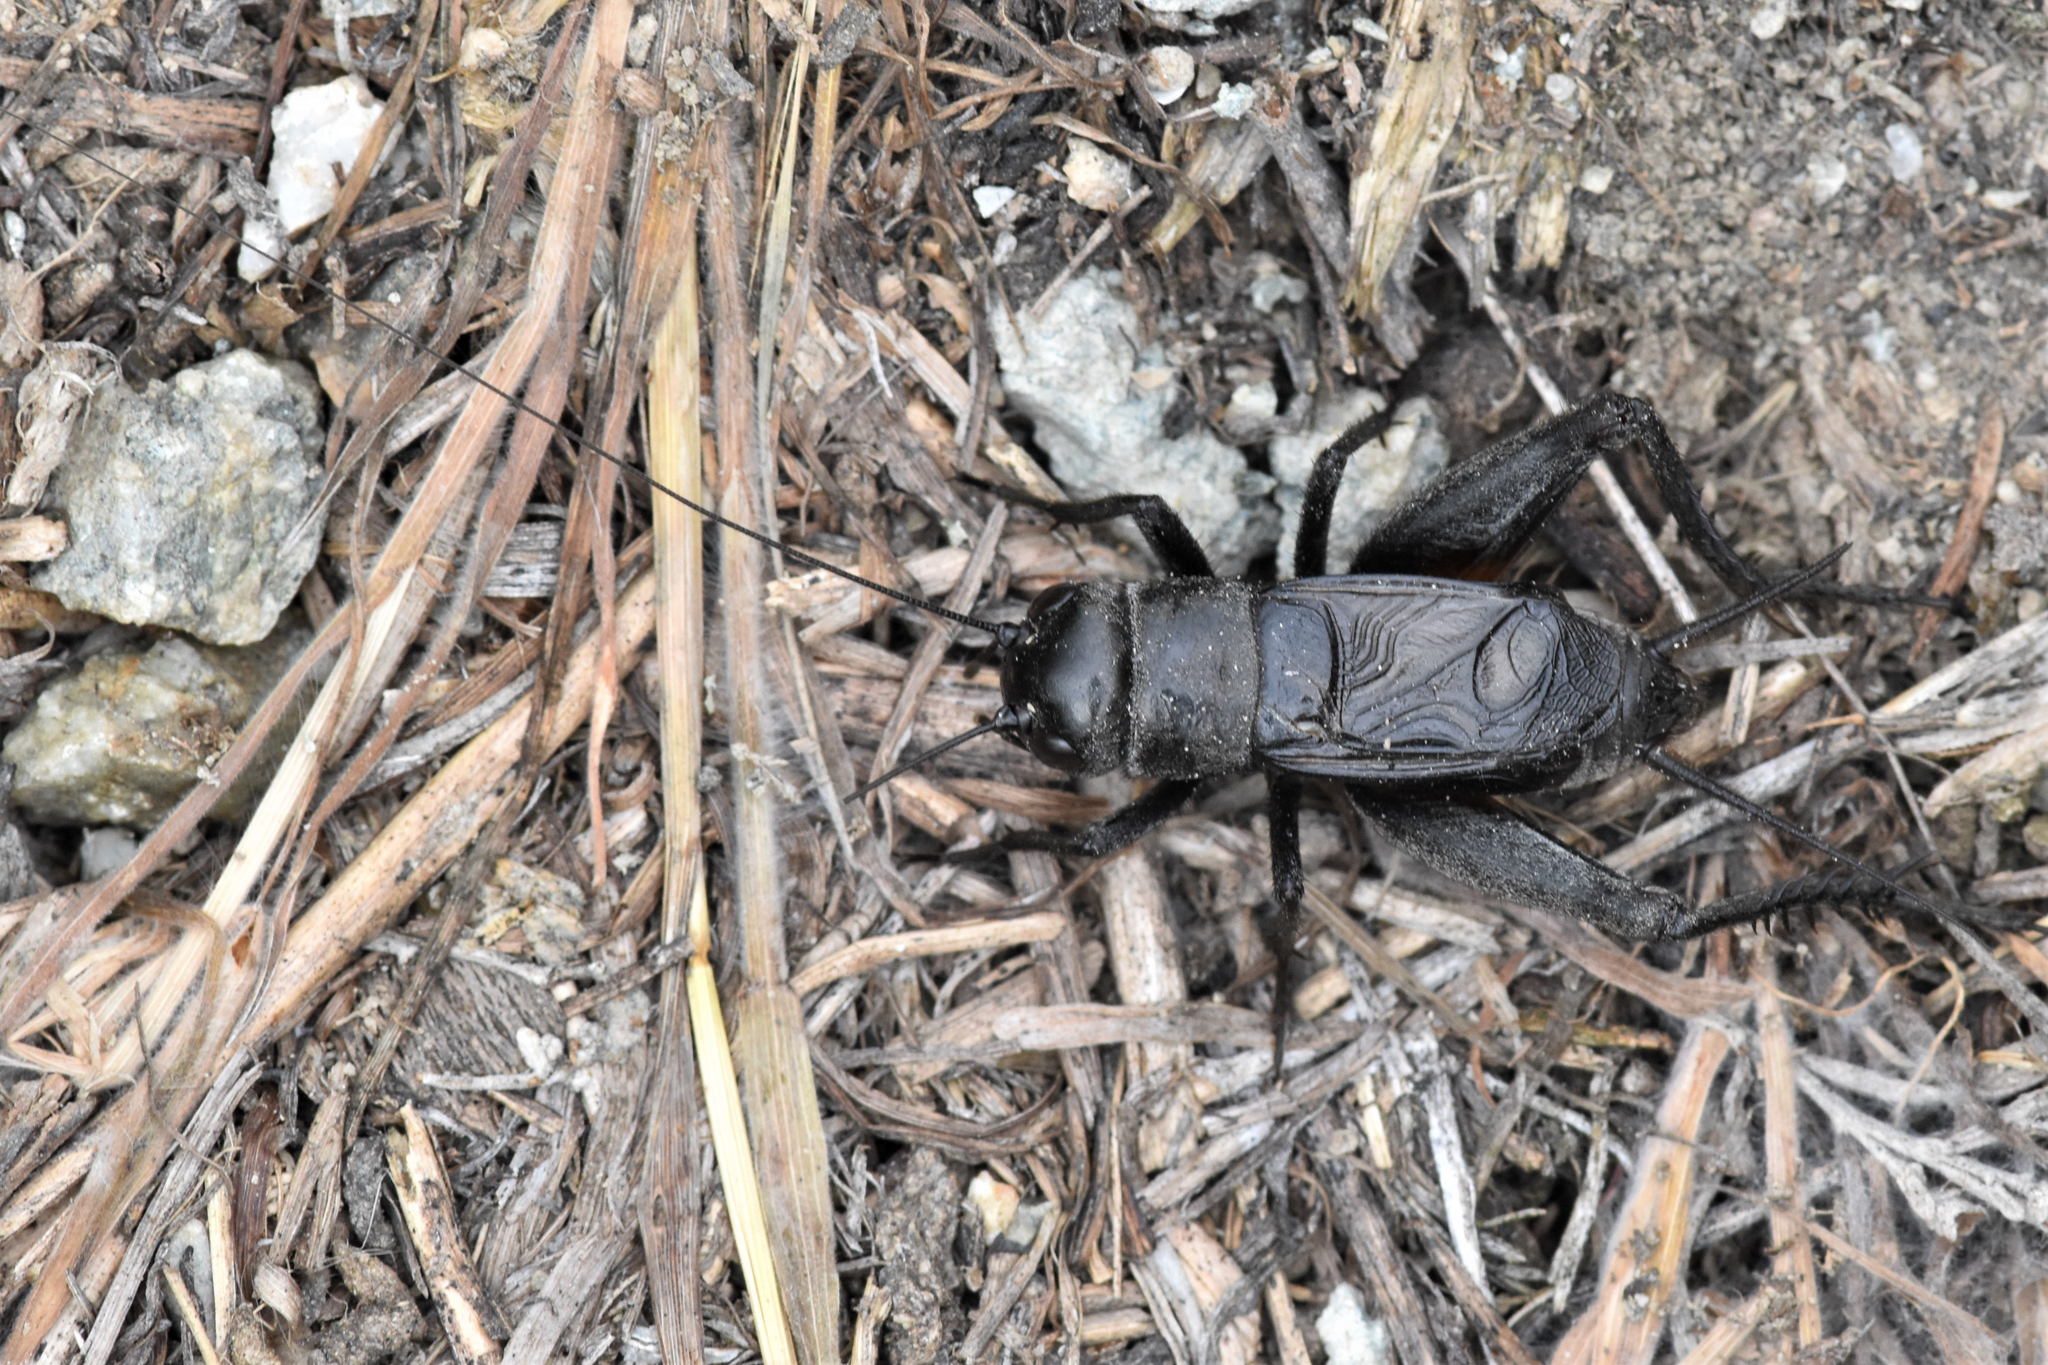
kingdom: Animalia
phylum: Arthropoda
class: Insecta
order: Orthoptera
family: Gryllidae
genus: Gryllus
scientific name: Gryllus saxatilis
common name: Western rock-loving field cricket
